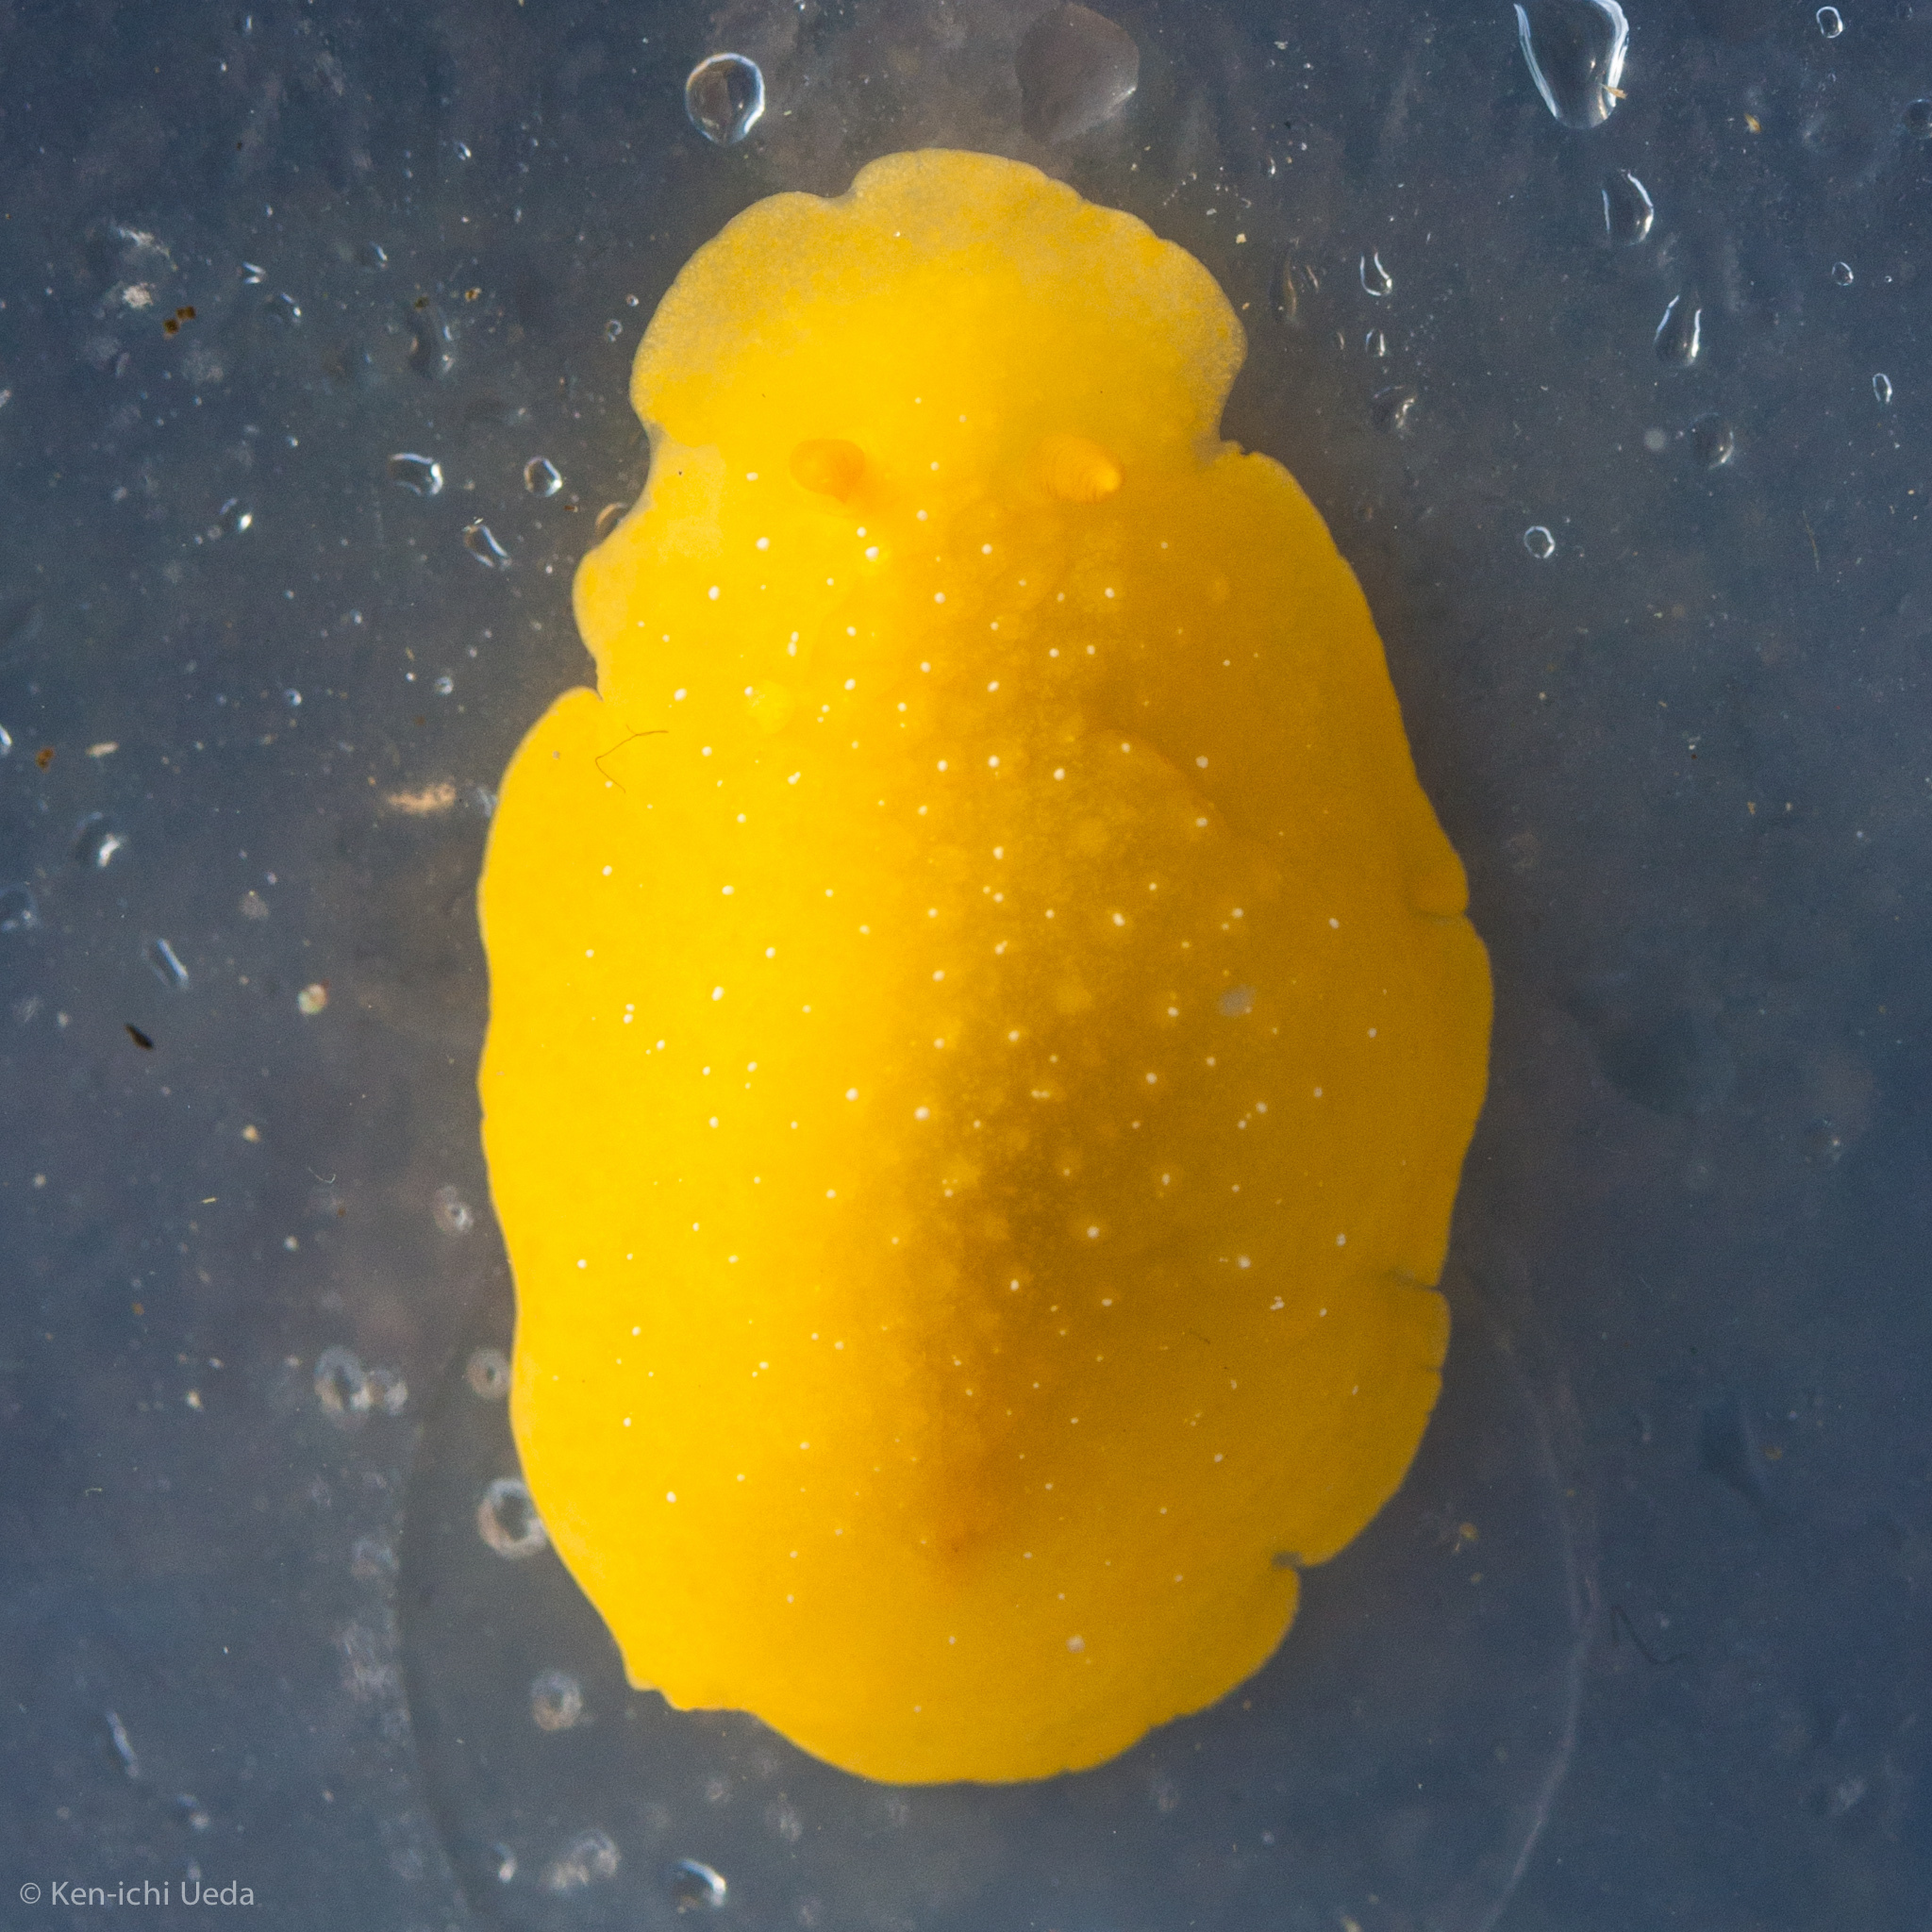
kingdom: Animalia
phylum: Mollusca
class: Gastropoda
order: Nudibranchia
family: Dendrodorididae
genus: Doriopsilla
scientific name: Doriopsilla fulva
